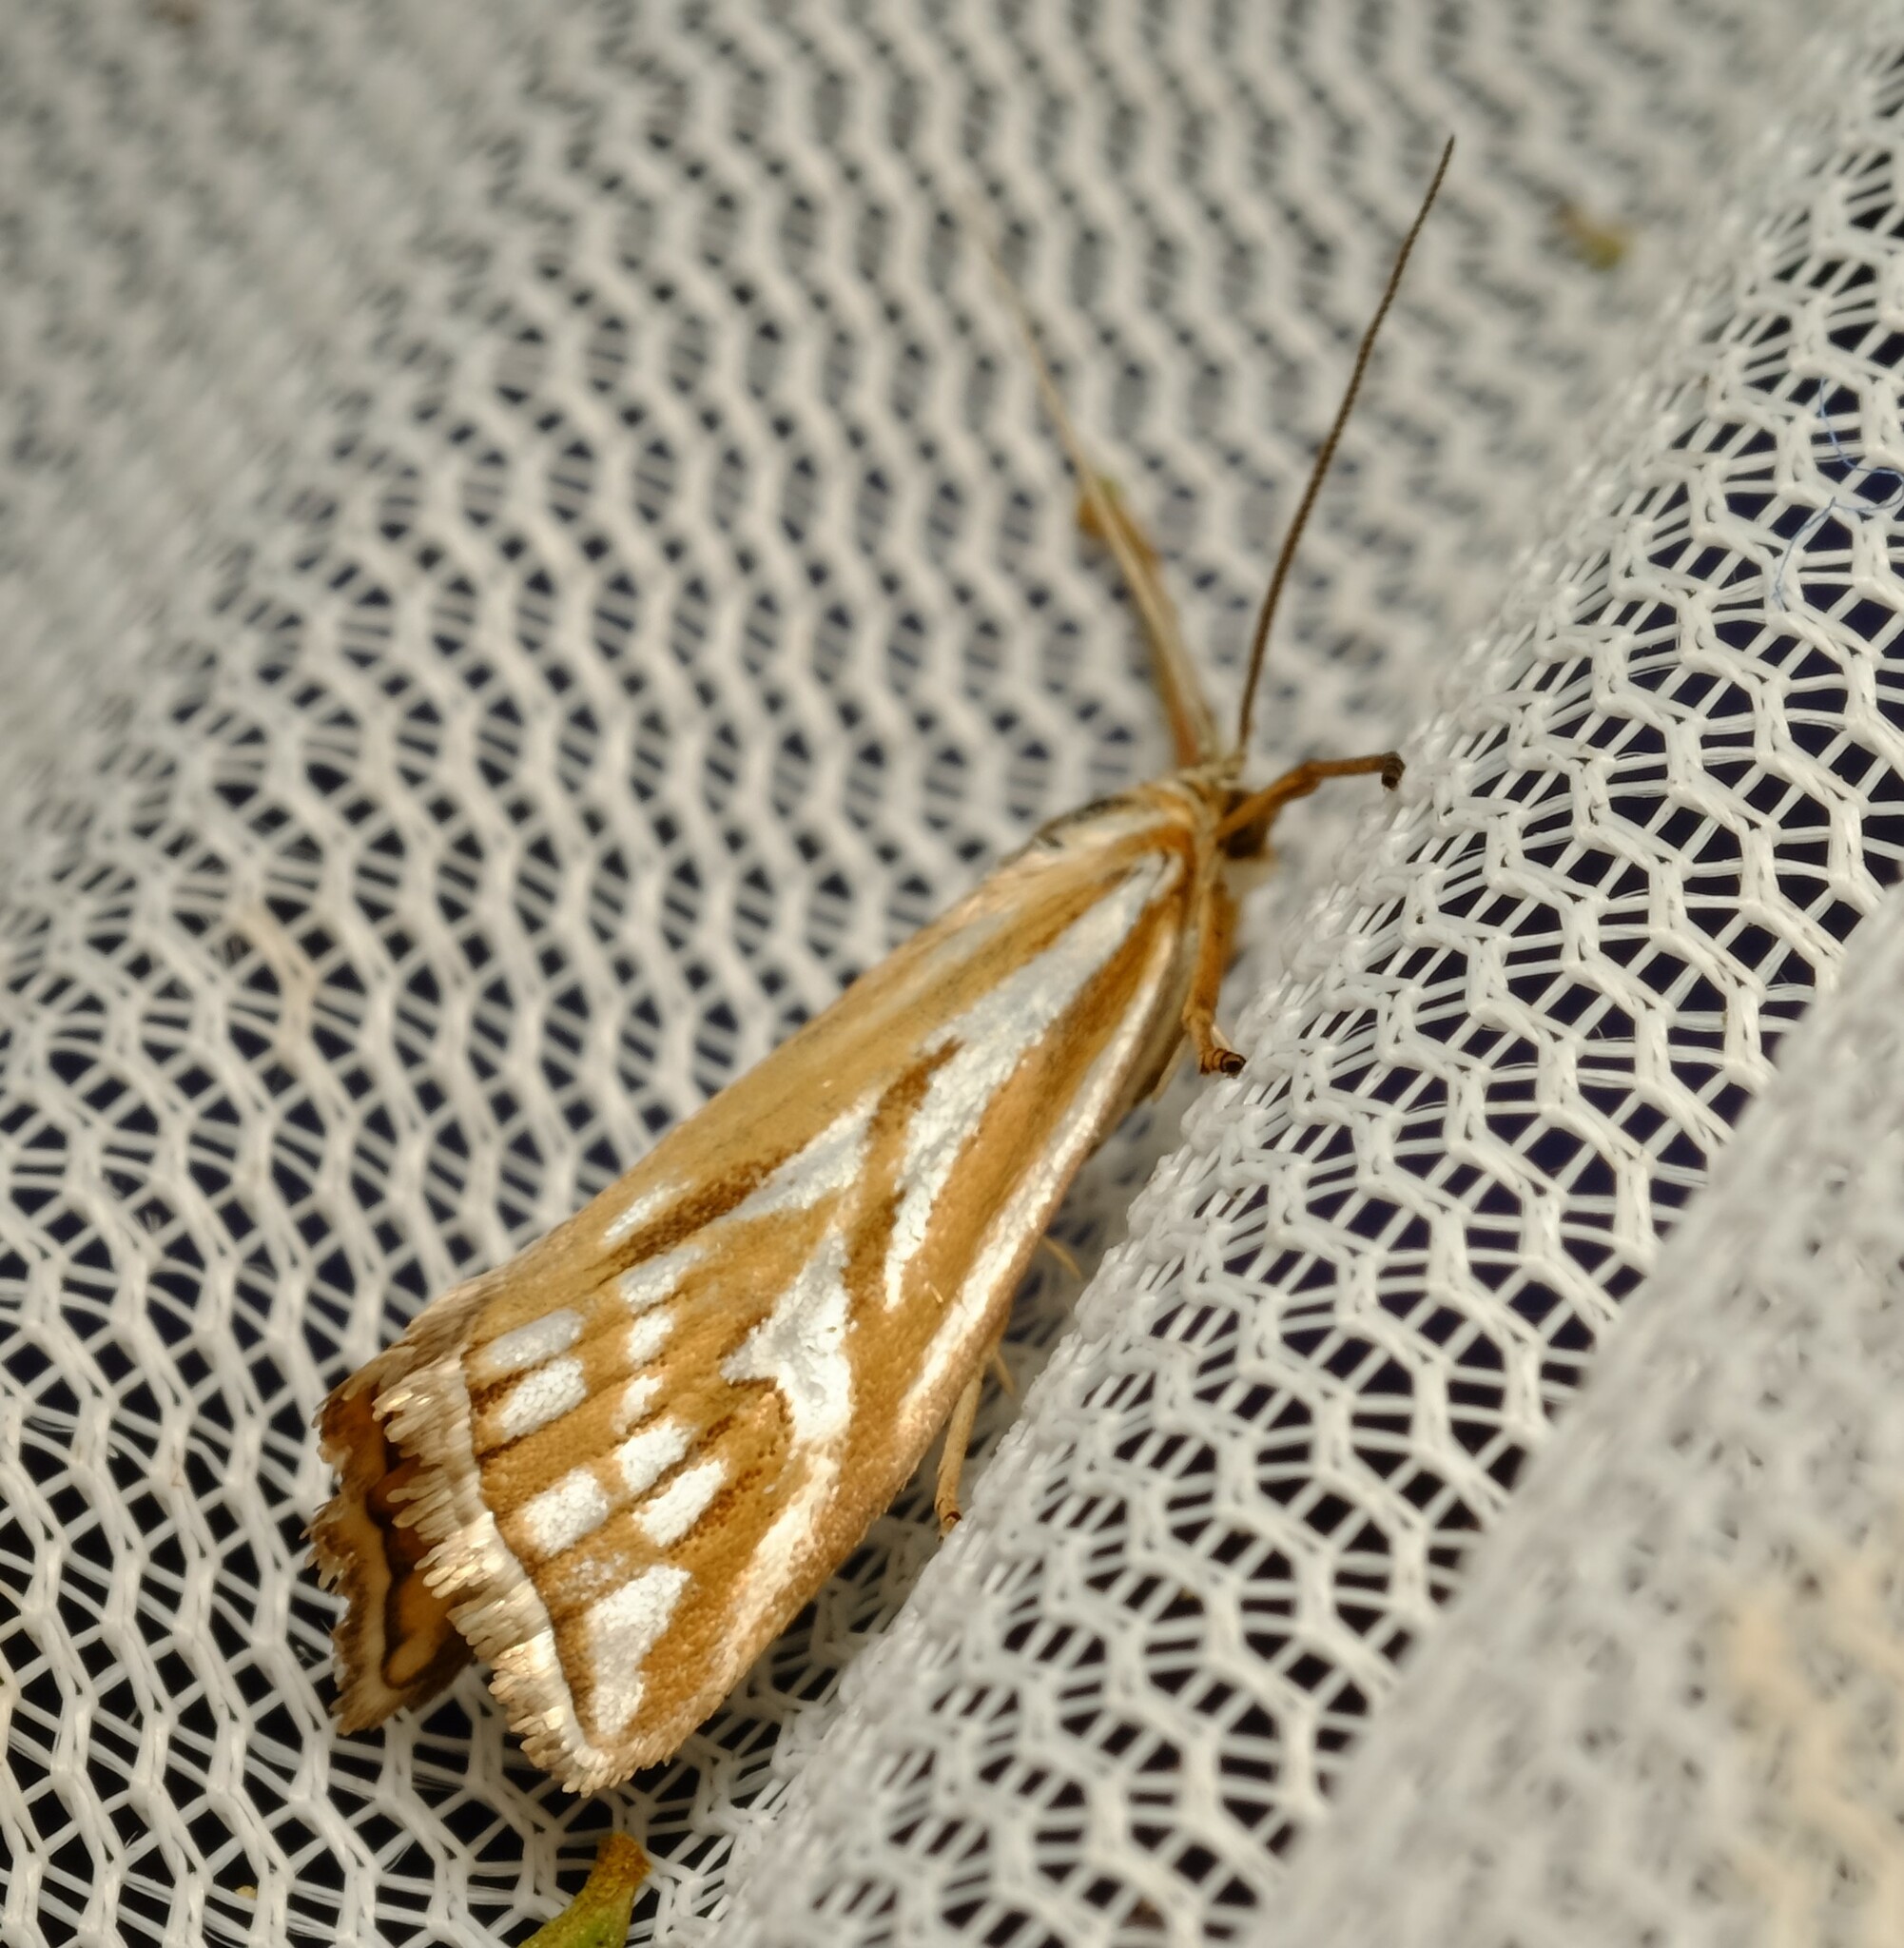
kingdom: Animalia
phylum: Arthropoda
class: Insecta
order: Lepidoptera
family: Crambidae
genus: Hednota
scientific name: Hednota pleniferellus
